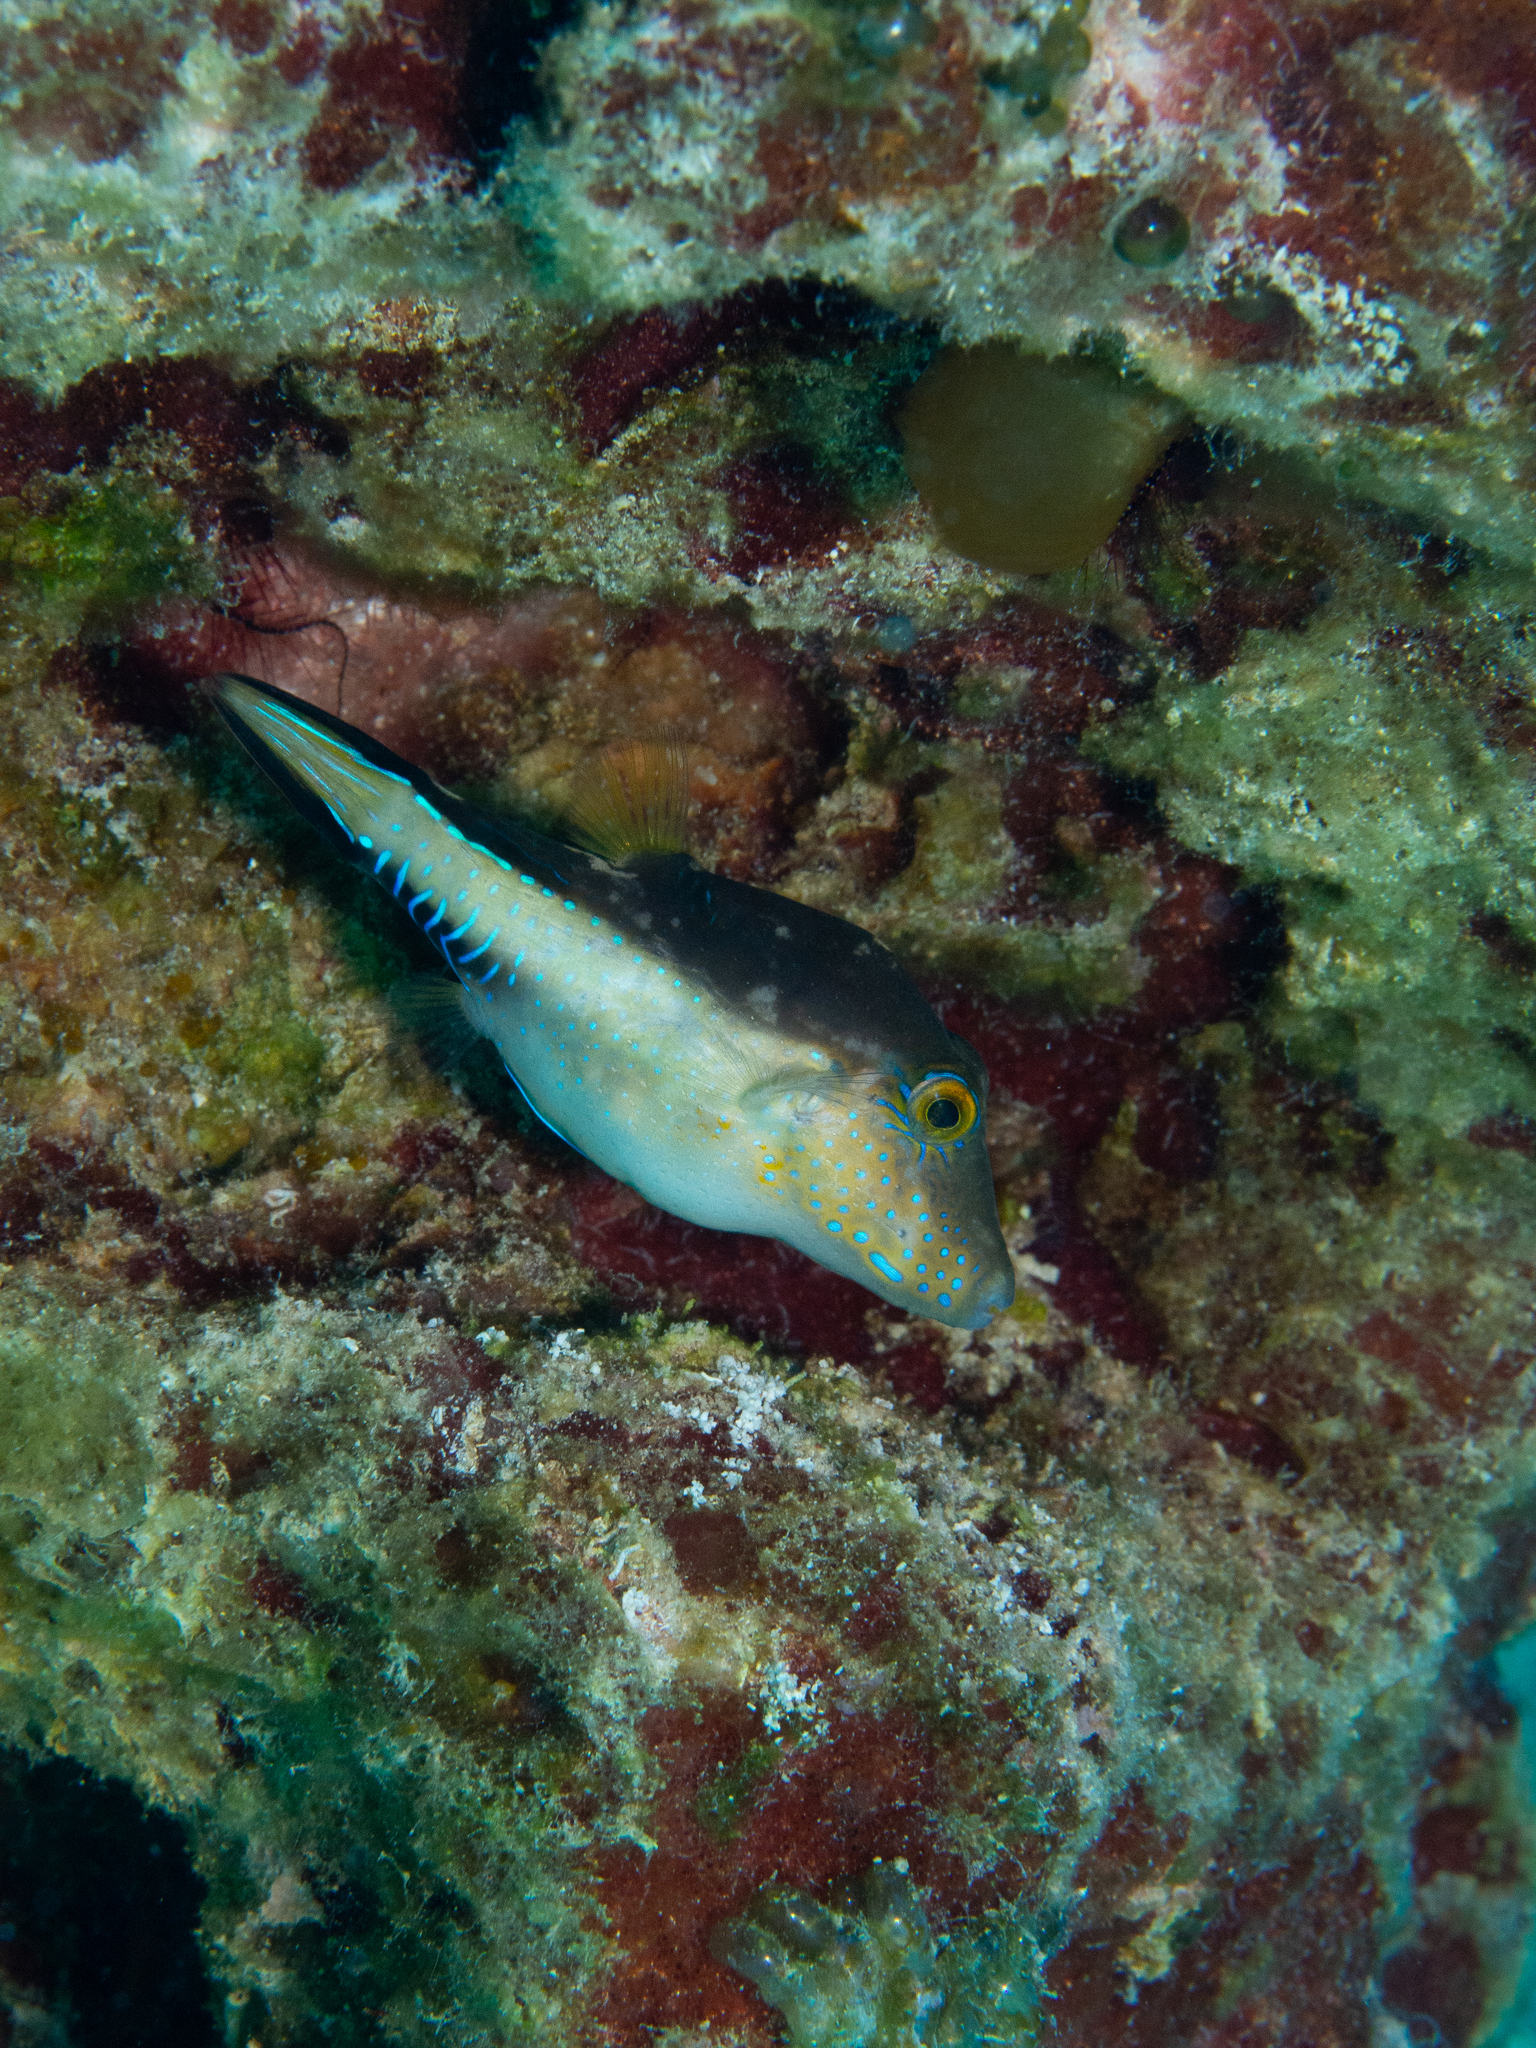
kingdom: Animalia
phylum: Chordata
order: Tetraodontiformes
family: Tetraodontidae
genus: Canthigaster
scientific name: Canthigaster rostrata
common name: Caribbean sharpnose-puffer
